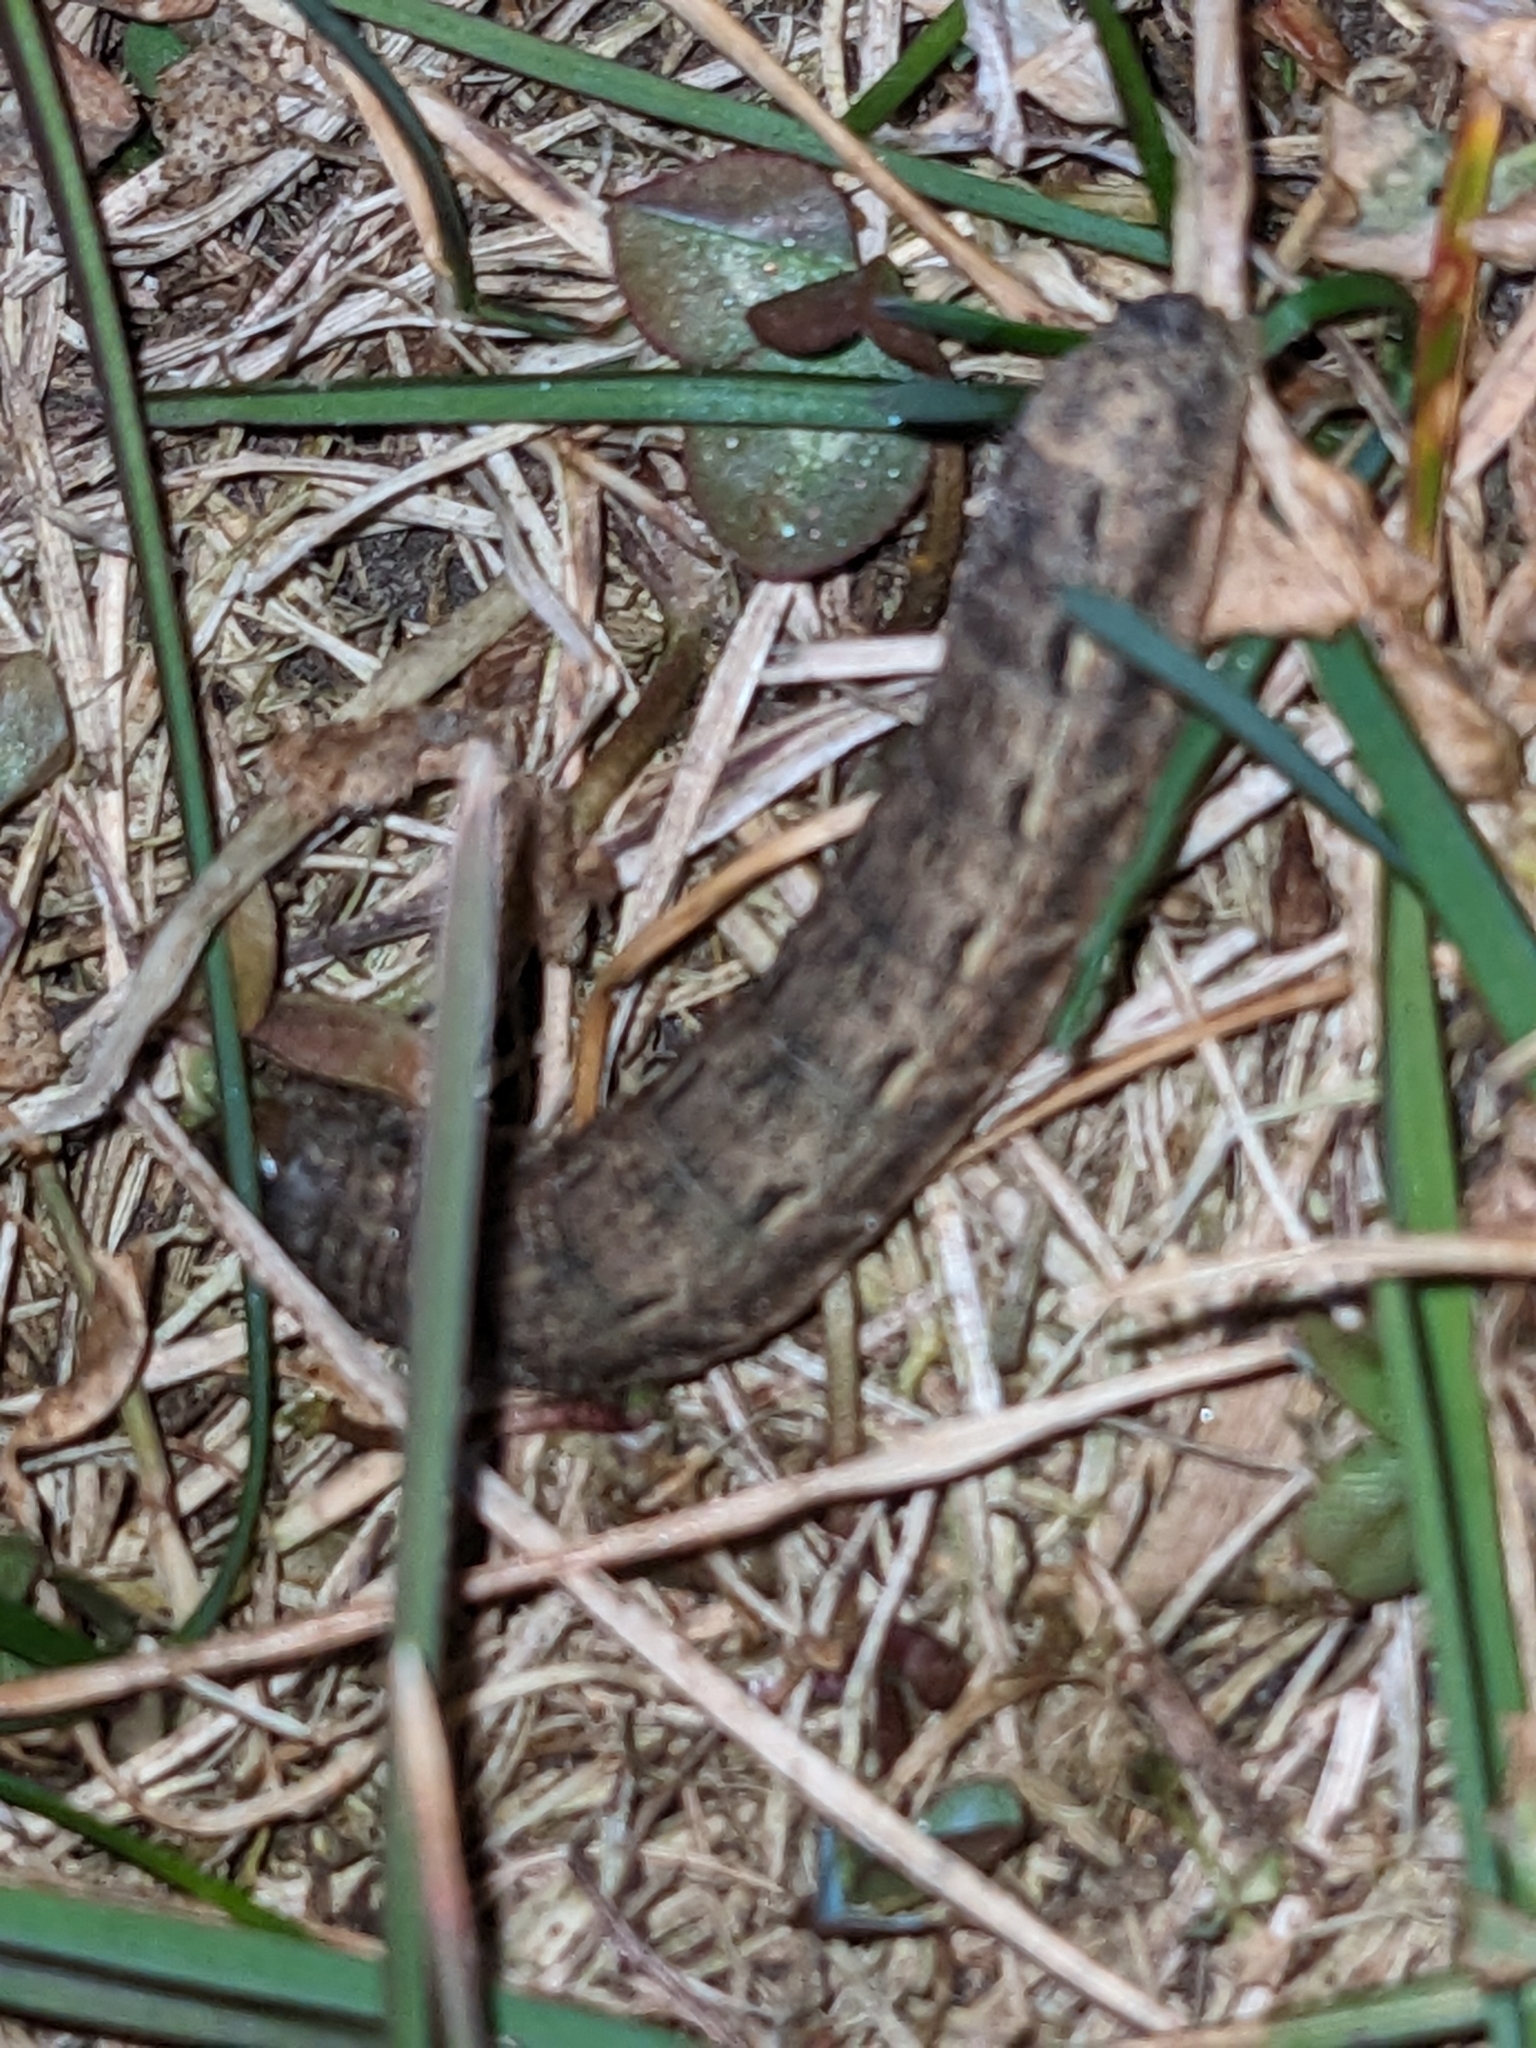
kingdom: Animalia
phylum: Arthropoda
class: Insecta
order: Lepidoptera
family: Noctuidae
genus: Noctua
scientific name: Noctua pronuba
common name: Large yellow underwing
